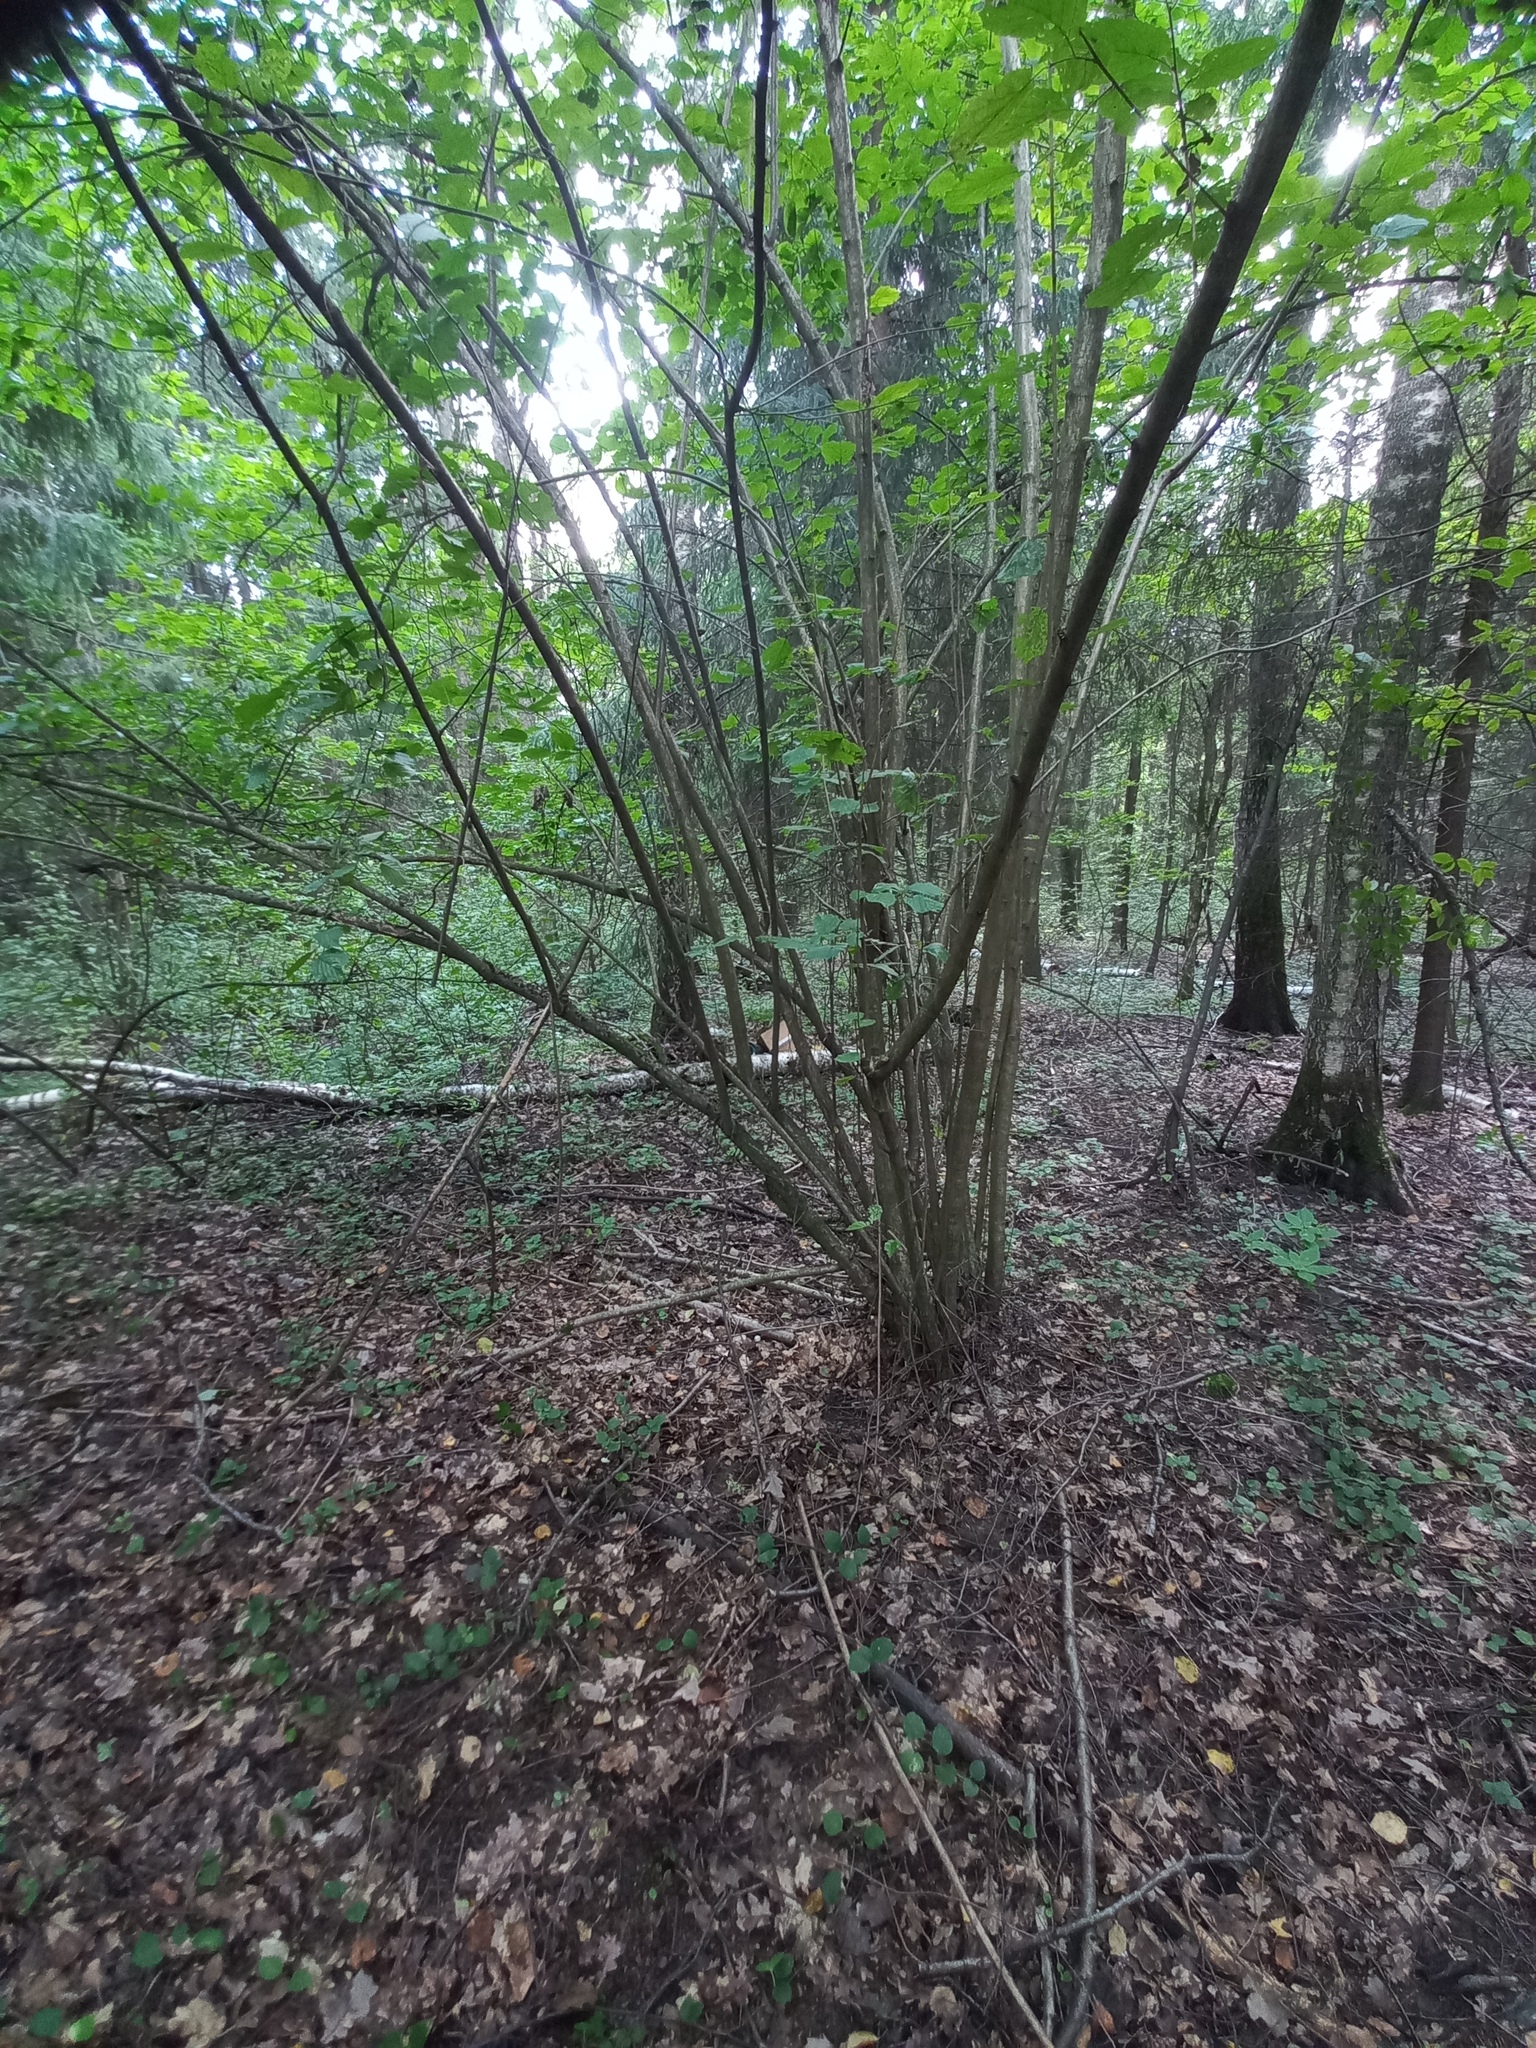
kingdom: Plantae
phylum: Tracheophyta
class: Magnoliopsida
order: Fagales
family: Betulaceae
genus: Corylus
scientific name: Corylus avellana
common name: European hazel
